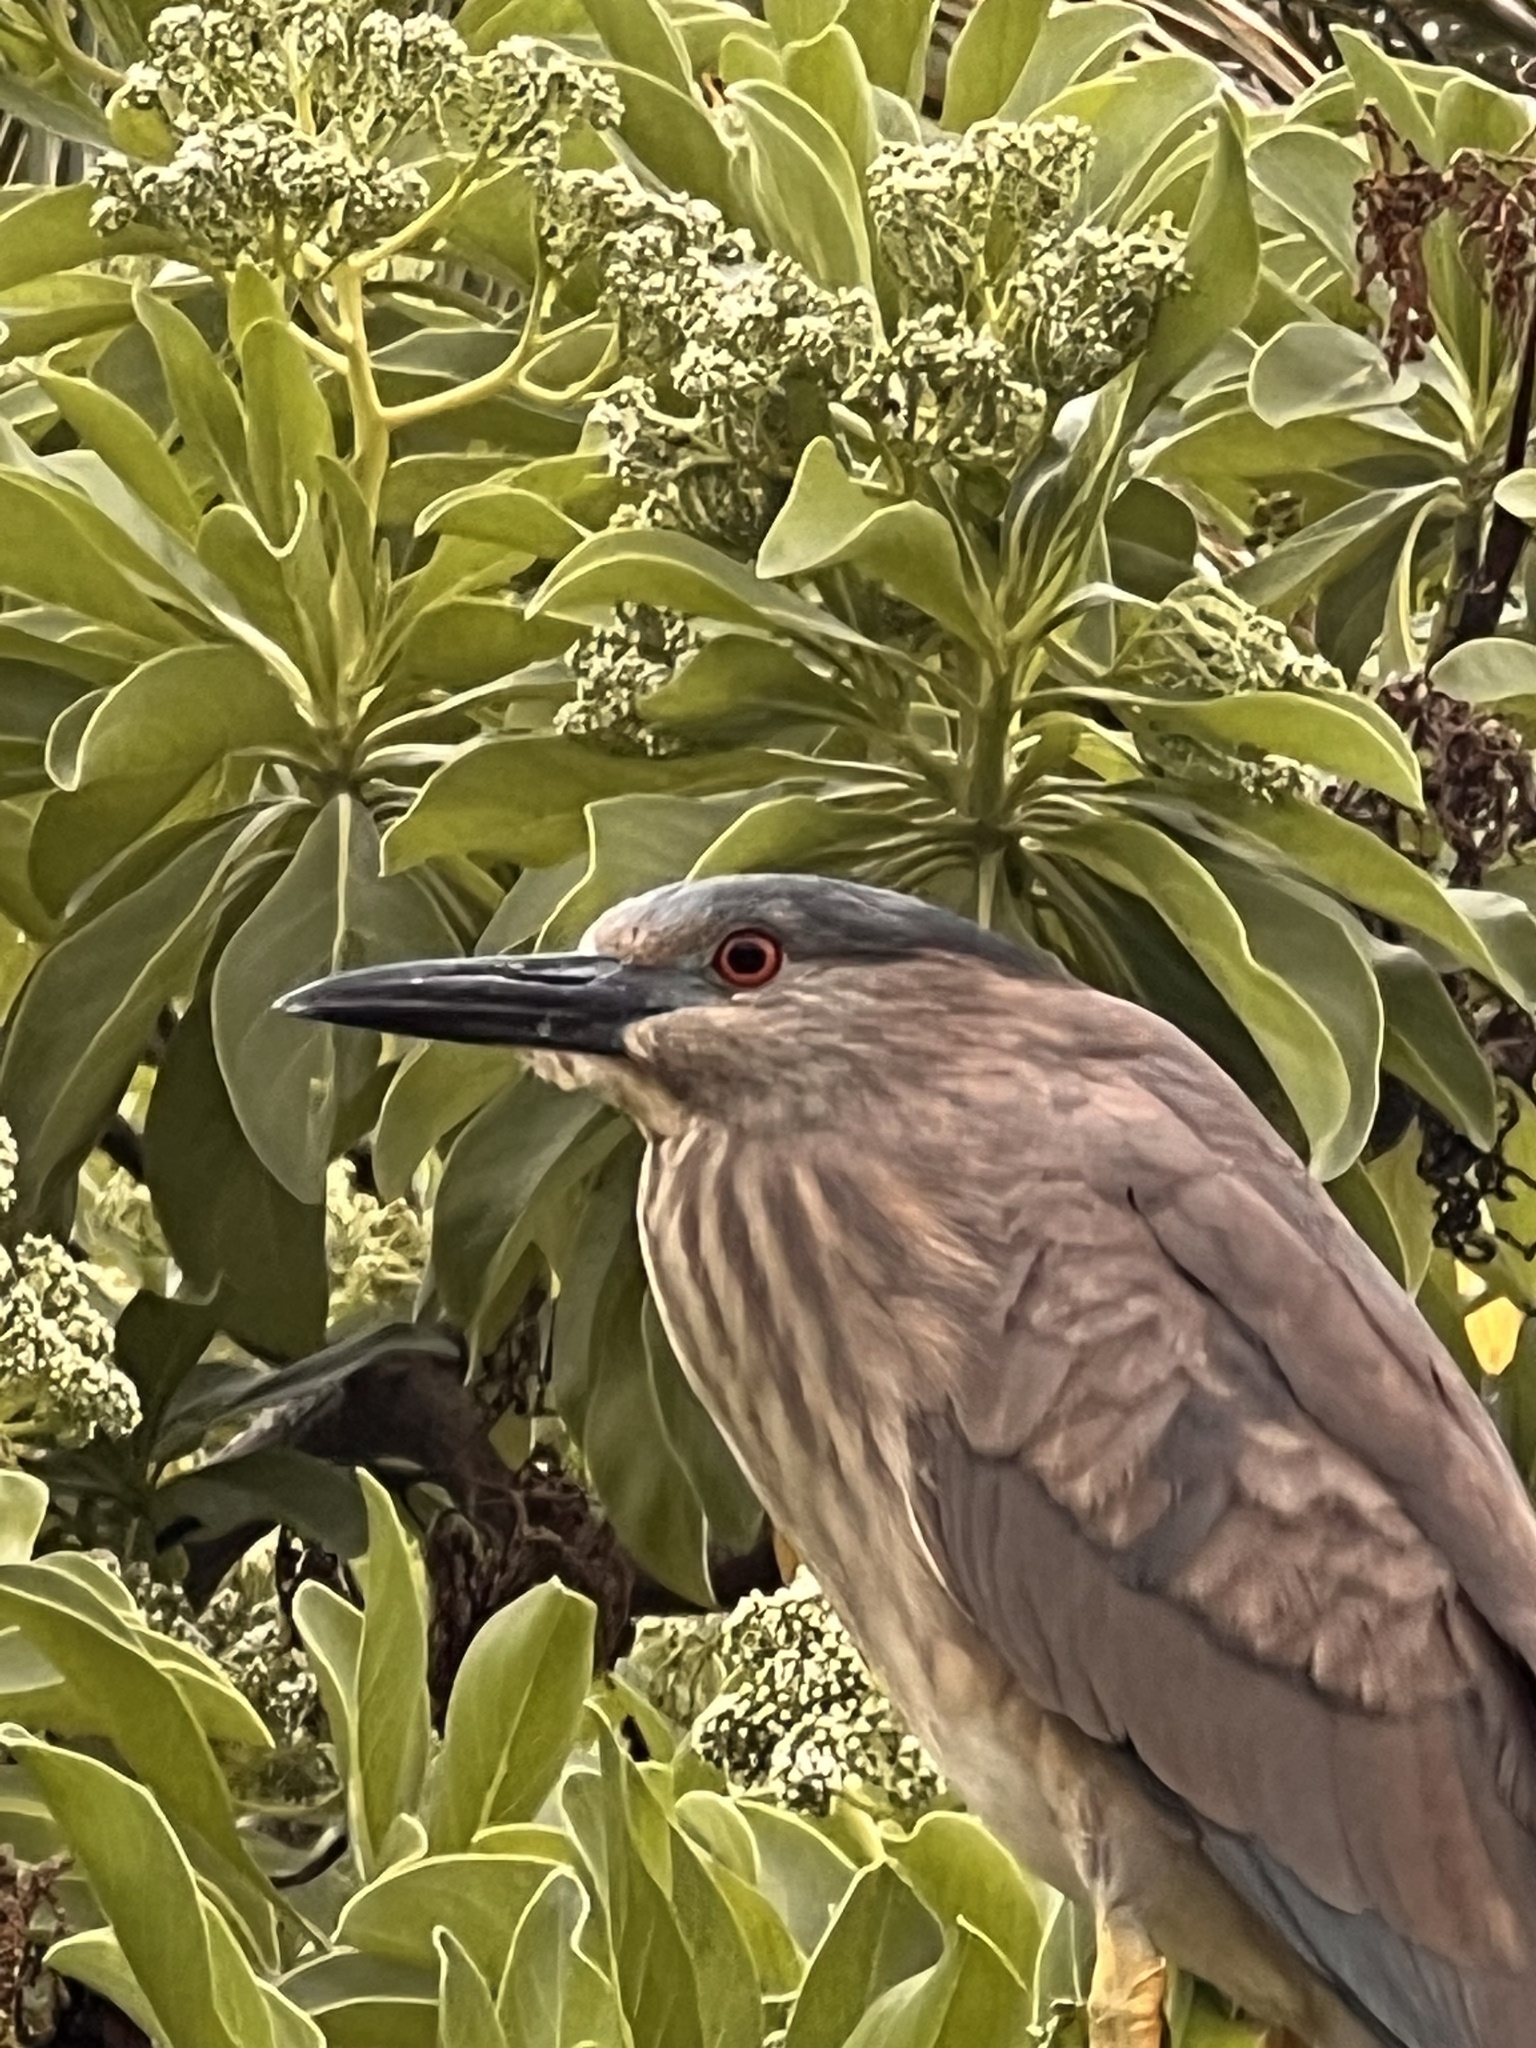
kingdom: Animalia
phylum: Chordata
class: Aves
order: Pelecaniformes
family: Ardeidae
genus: Nycticorax
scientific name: Nycticorax nycticorax
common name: Black-crowned night heron
